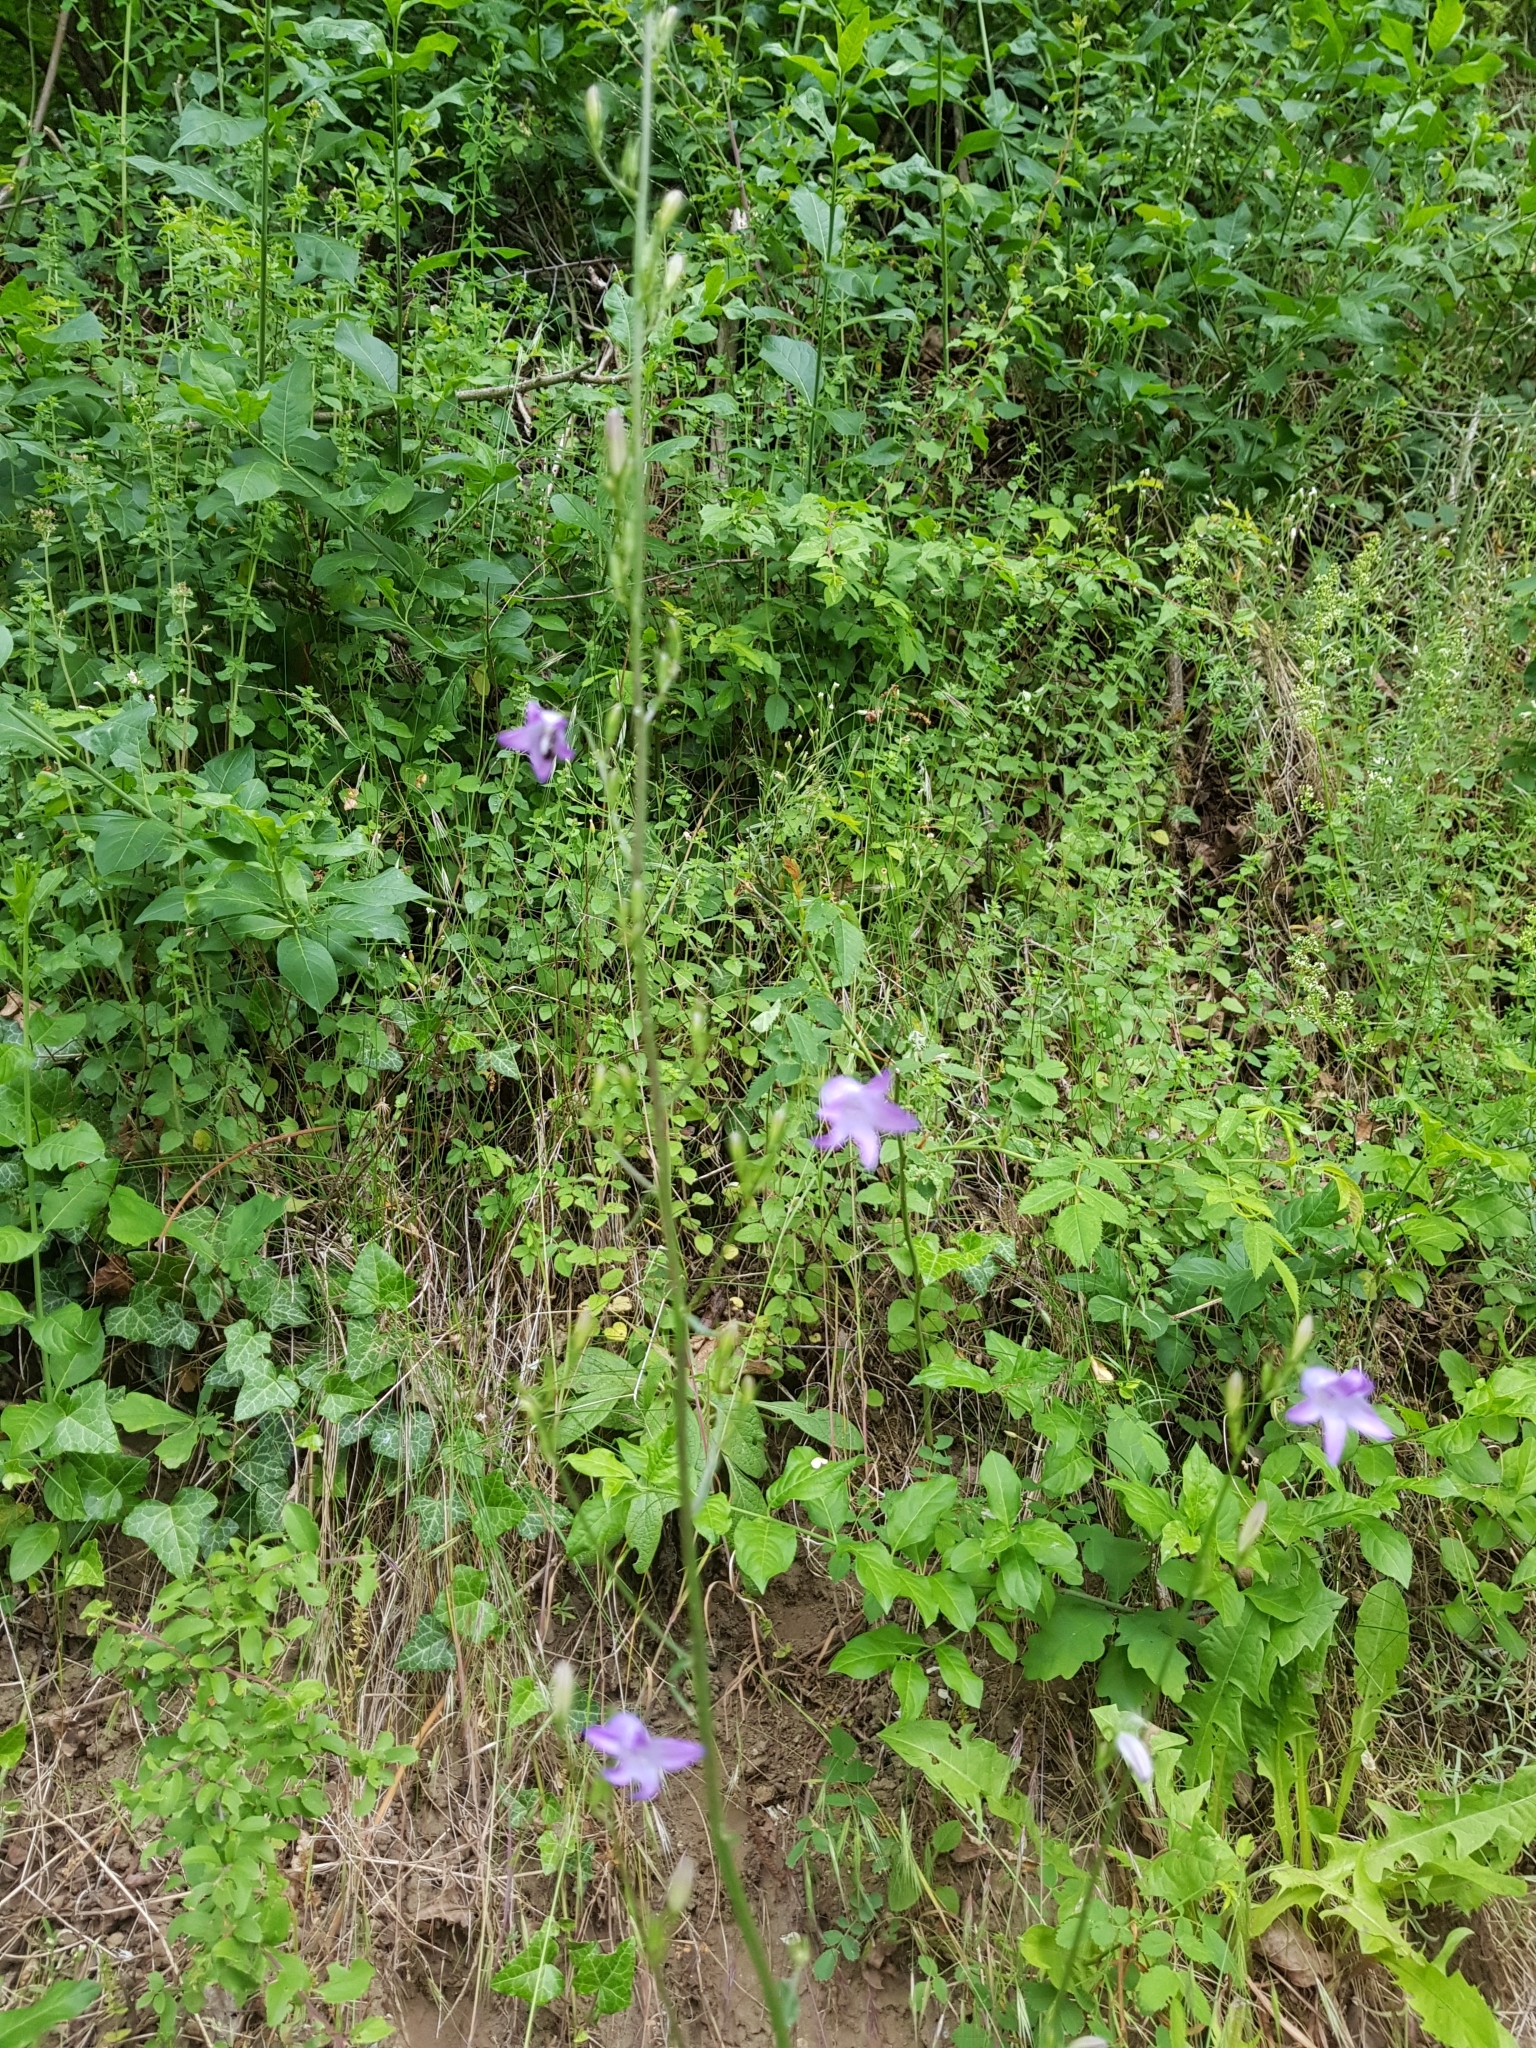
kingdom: Plantae
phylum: Tracheophyta
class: Magnoliopsida
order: Asterales
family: Campanulaceae
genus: Campanula
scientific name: Campanula rapunculus
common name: Rampion bellflower
